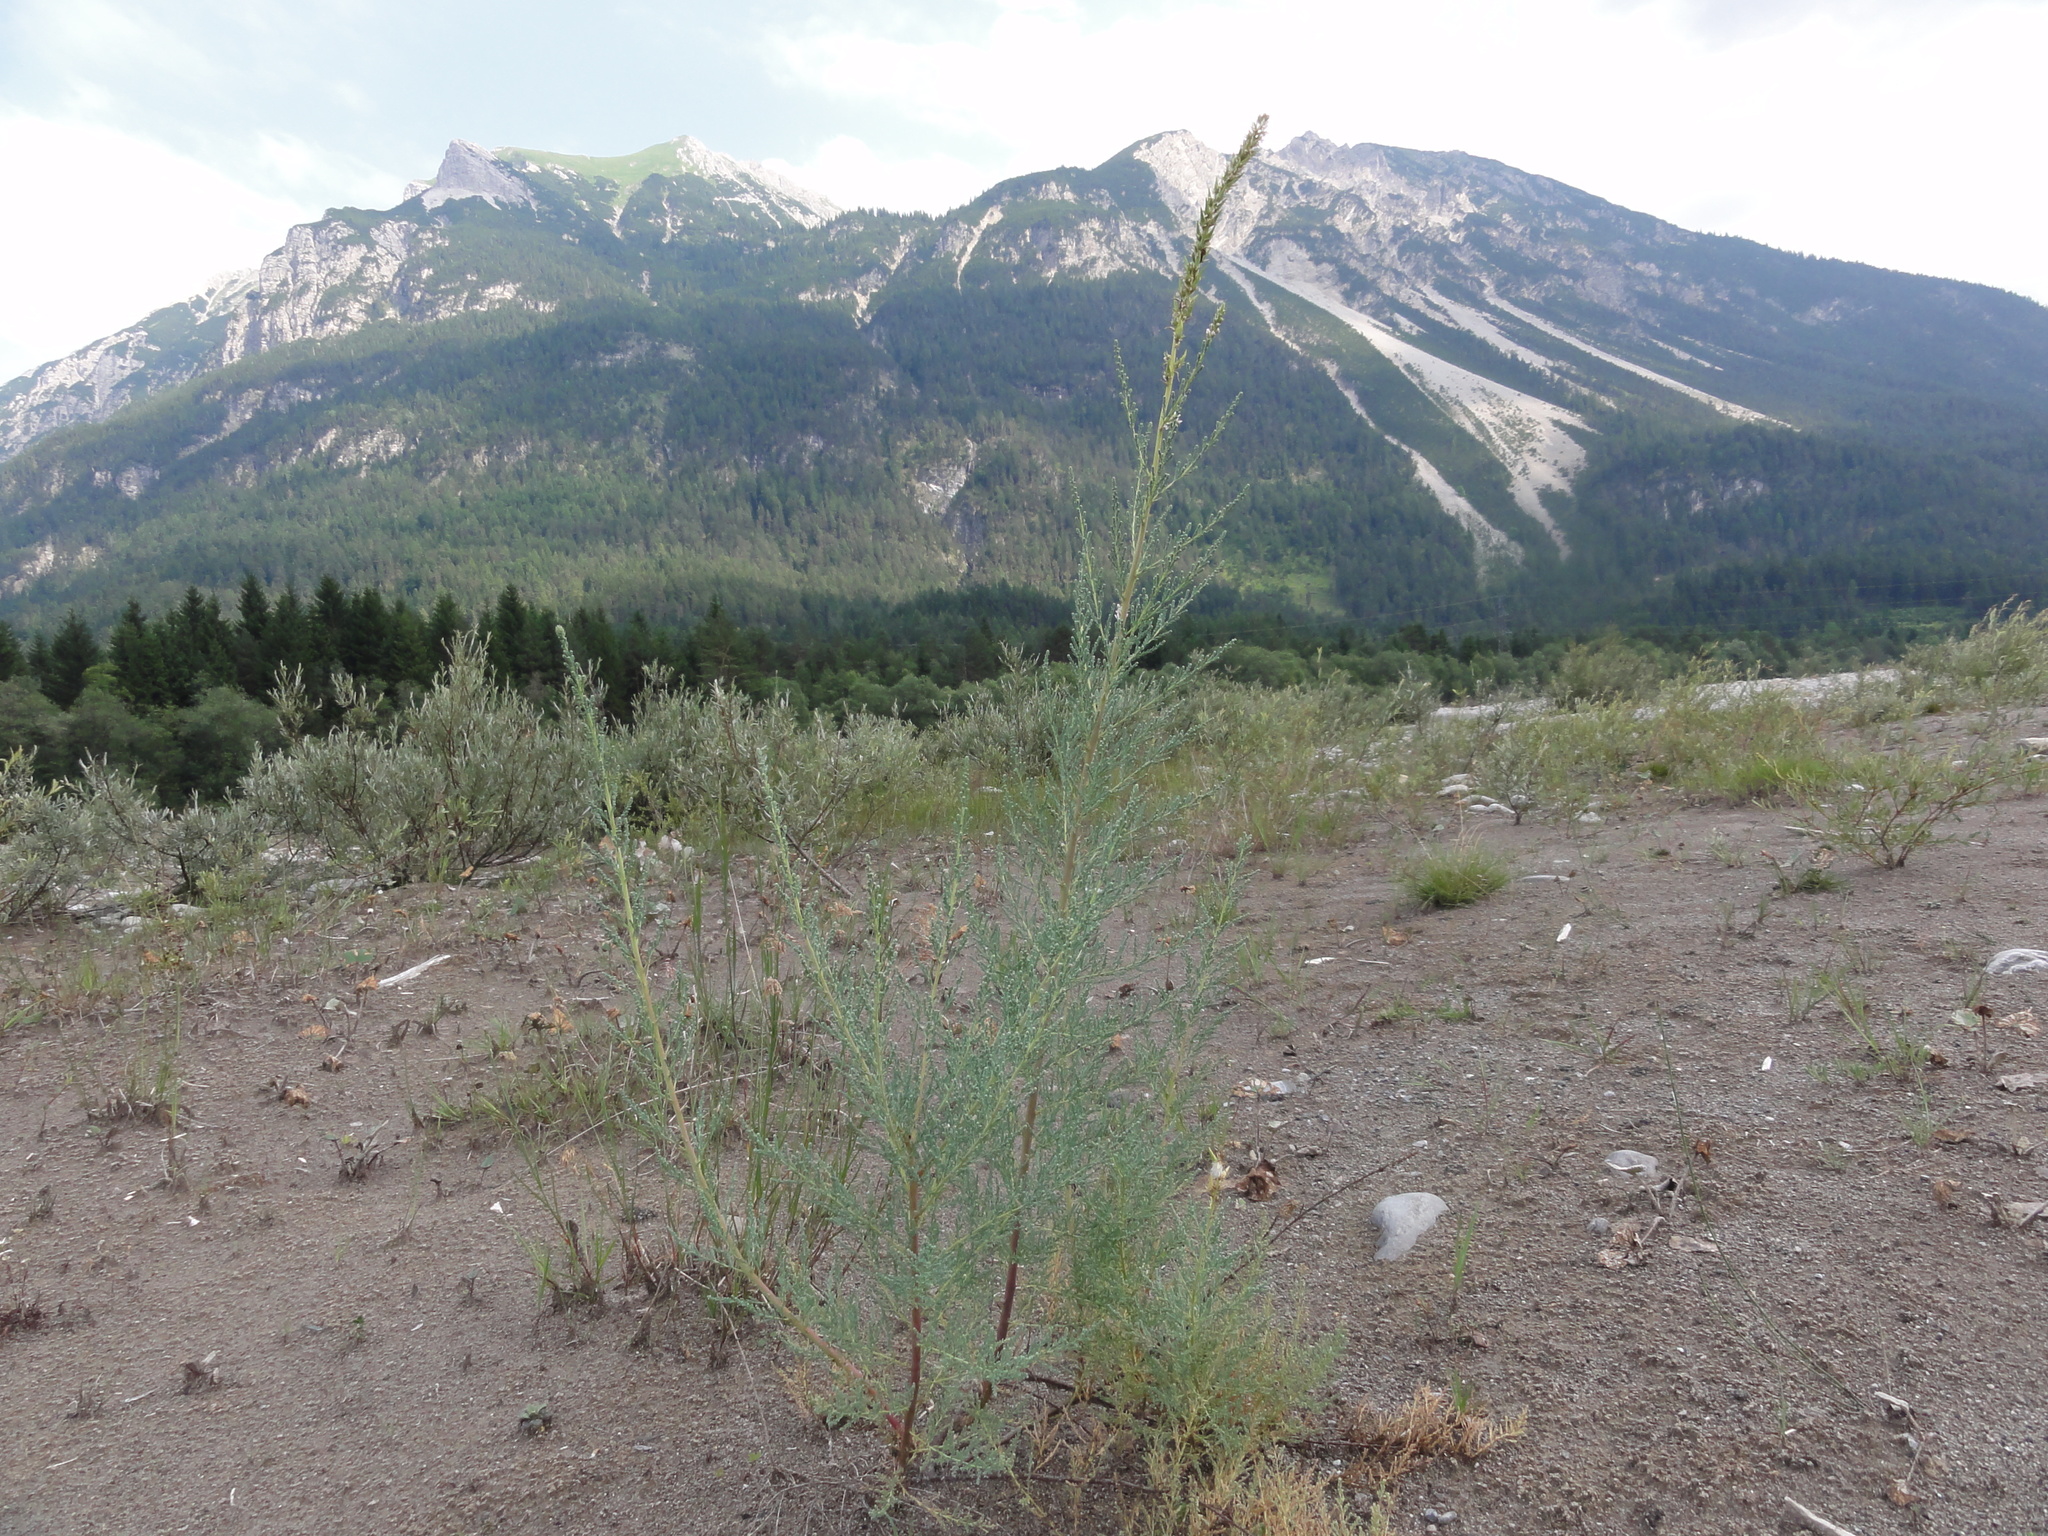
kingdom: Plantae
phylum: Tracheophyta
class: Magnoliopsida
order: Caryophyllales
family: Tamaricaceae
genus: Myricaria
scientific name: Myricaria germanica
